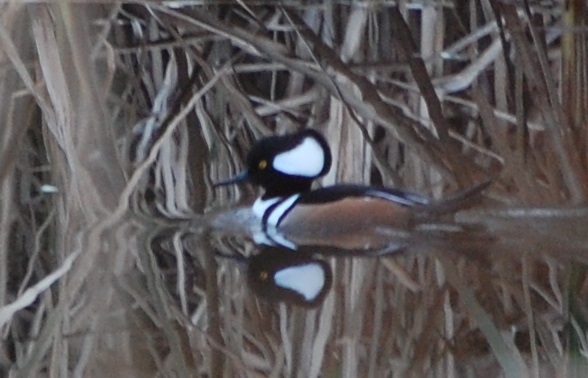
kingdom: Animalia
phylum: Chordata
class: Aves
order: Anseriformes
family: Anatidae
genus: Lophodytes
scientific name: Lophodytes cucullatus
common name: Hooded merganser
